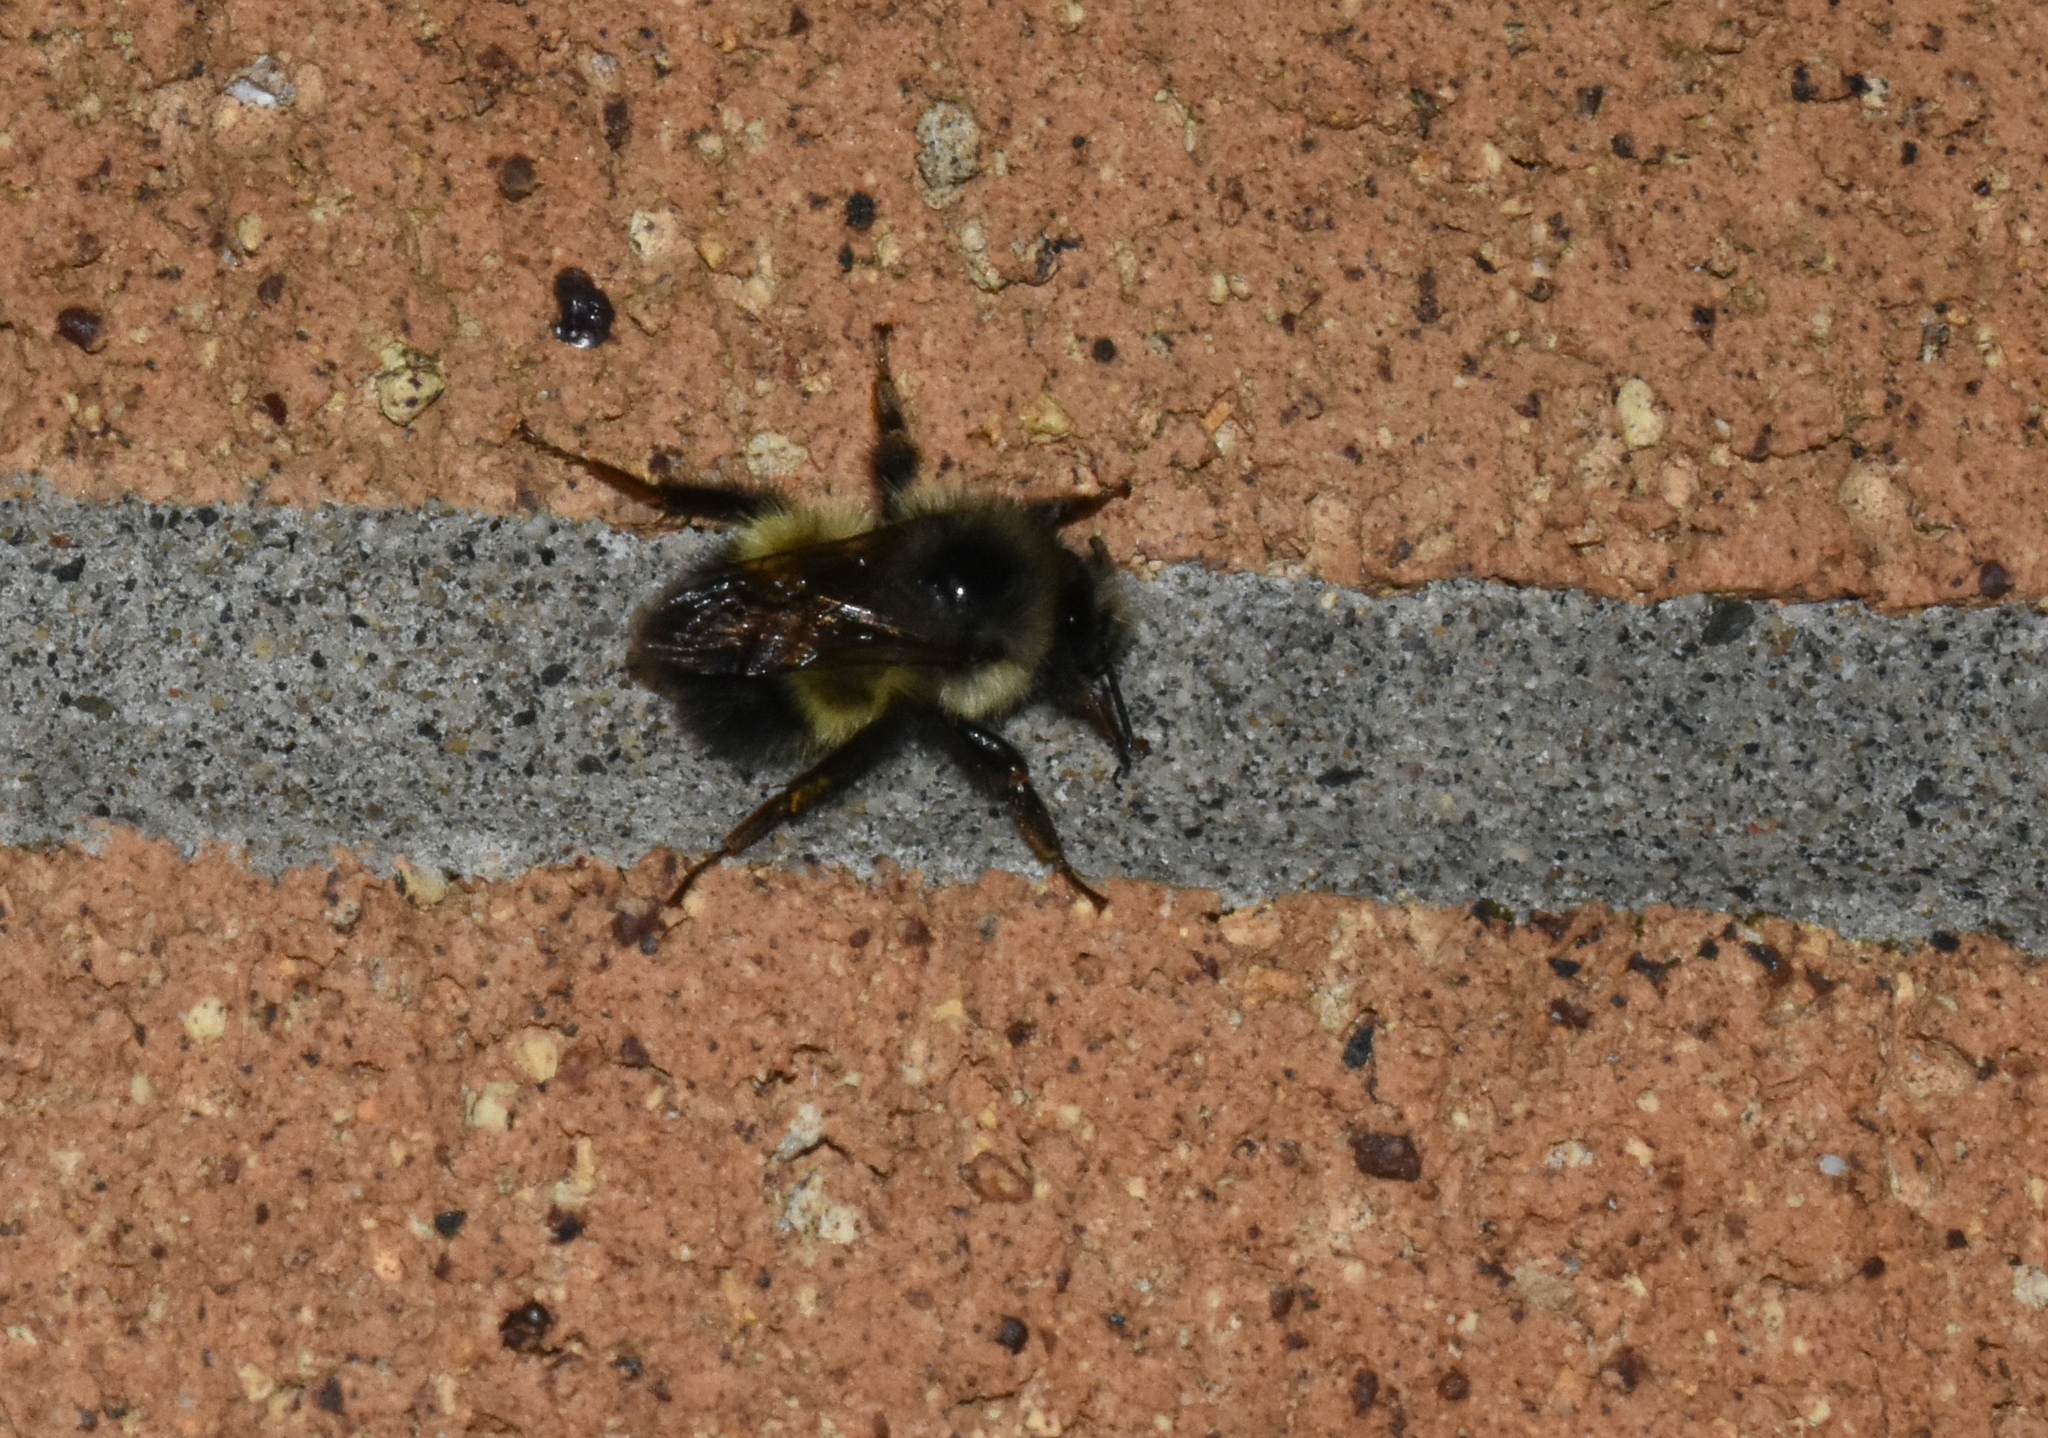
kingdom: Animalia
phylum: Arthropoda
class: Insecta
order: Hymenoptera
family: Apidae
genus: Bombus
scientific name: Bombus flavifrons
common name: Yellow head bumble bee
